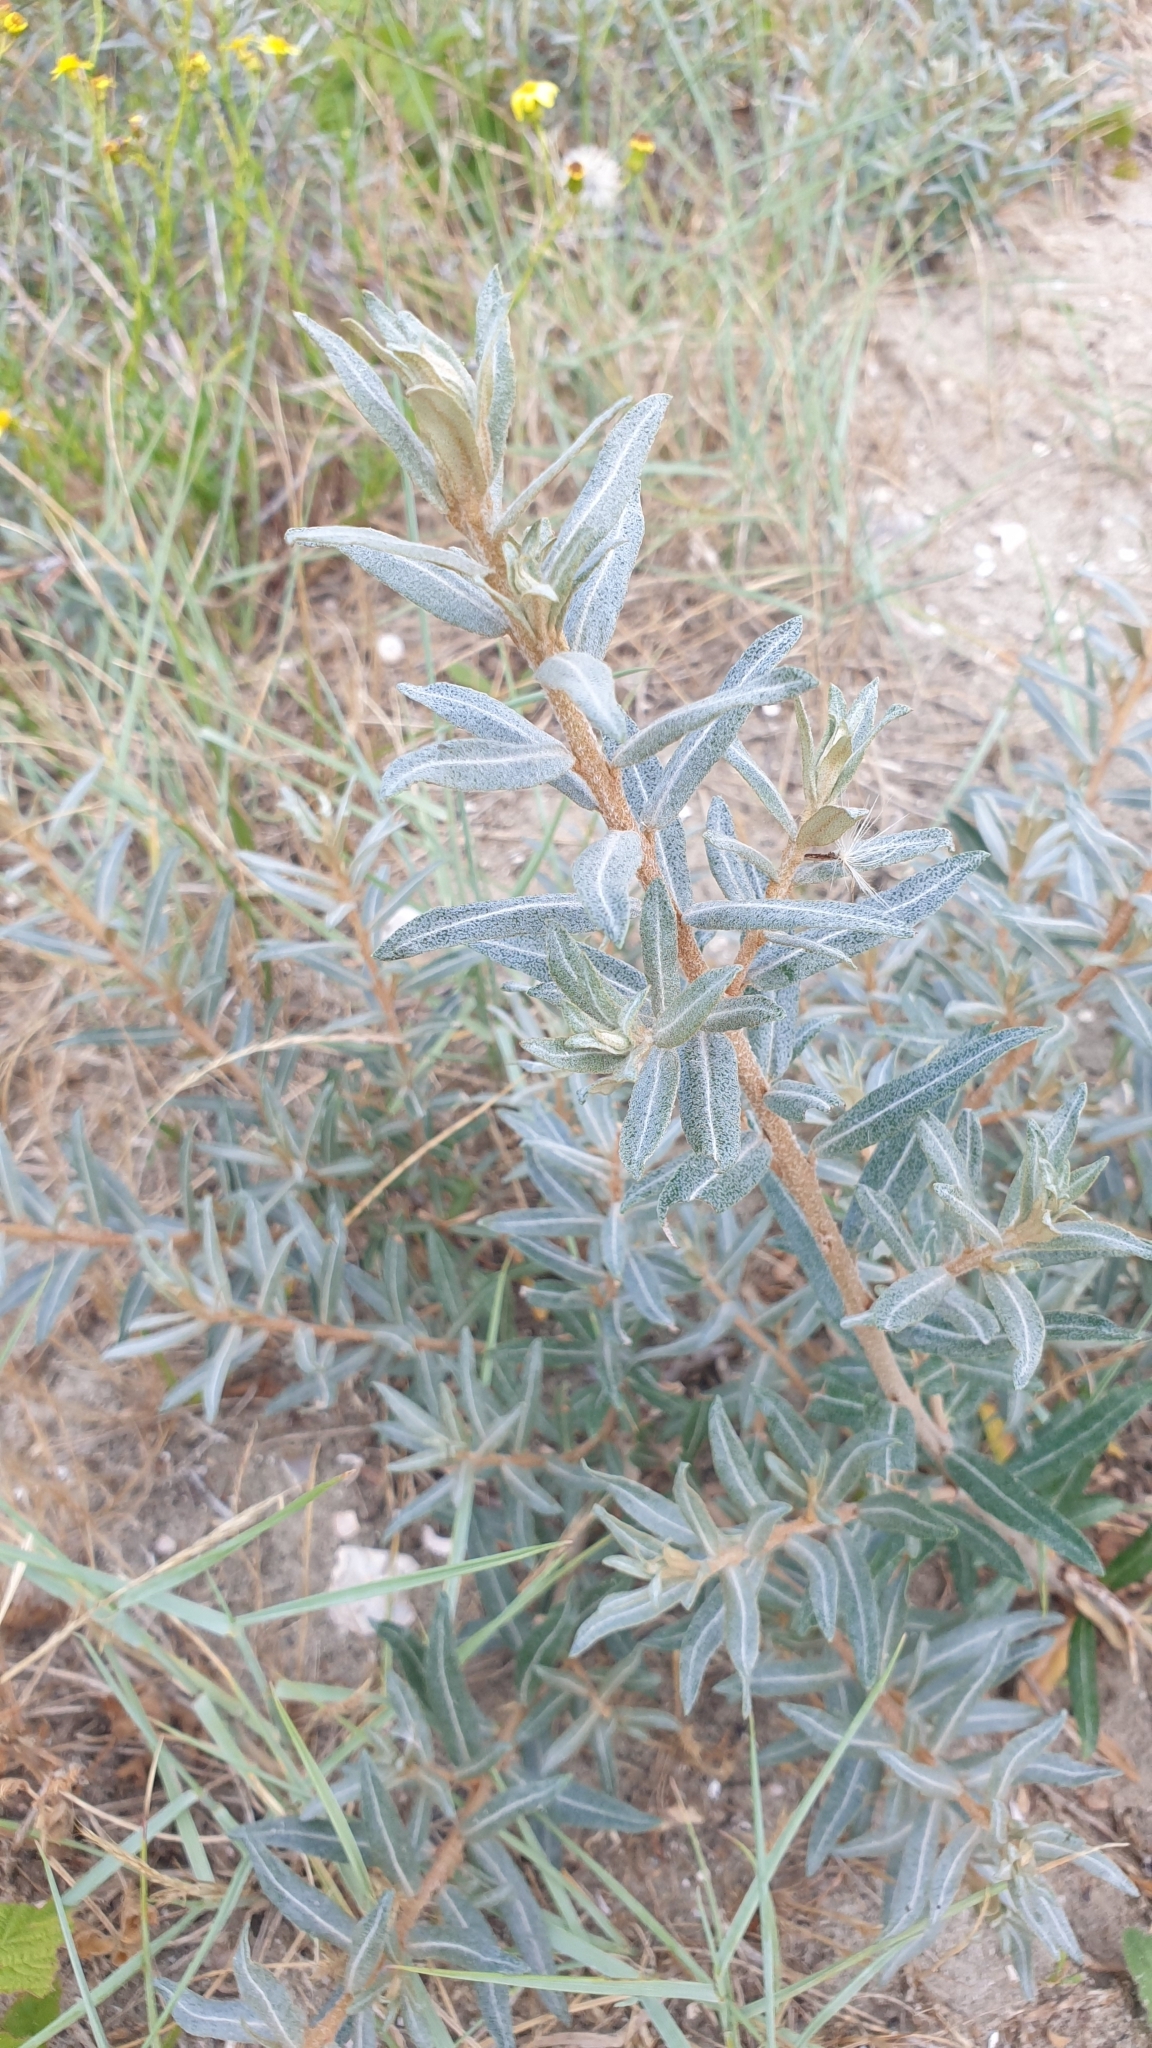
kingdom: Plantae
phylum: Tracheophyta
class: Magnoliopsida
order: Rosales
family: Elaeagnaceae
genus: Hippophae
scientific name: Hippophae rhamnoides
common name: Sea-buckthorn
